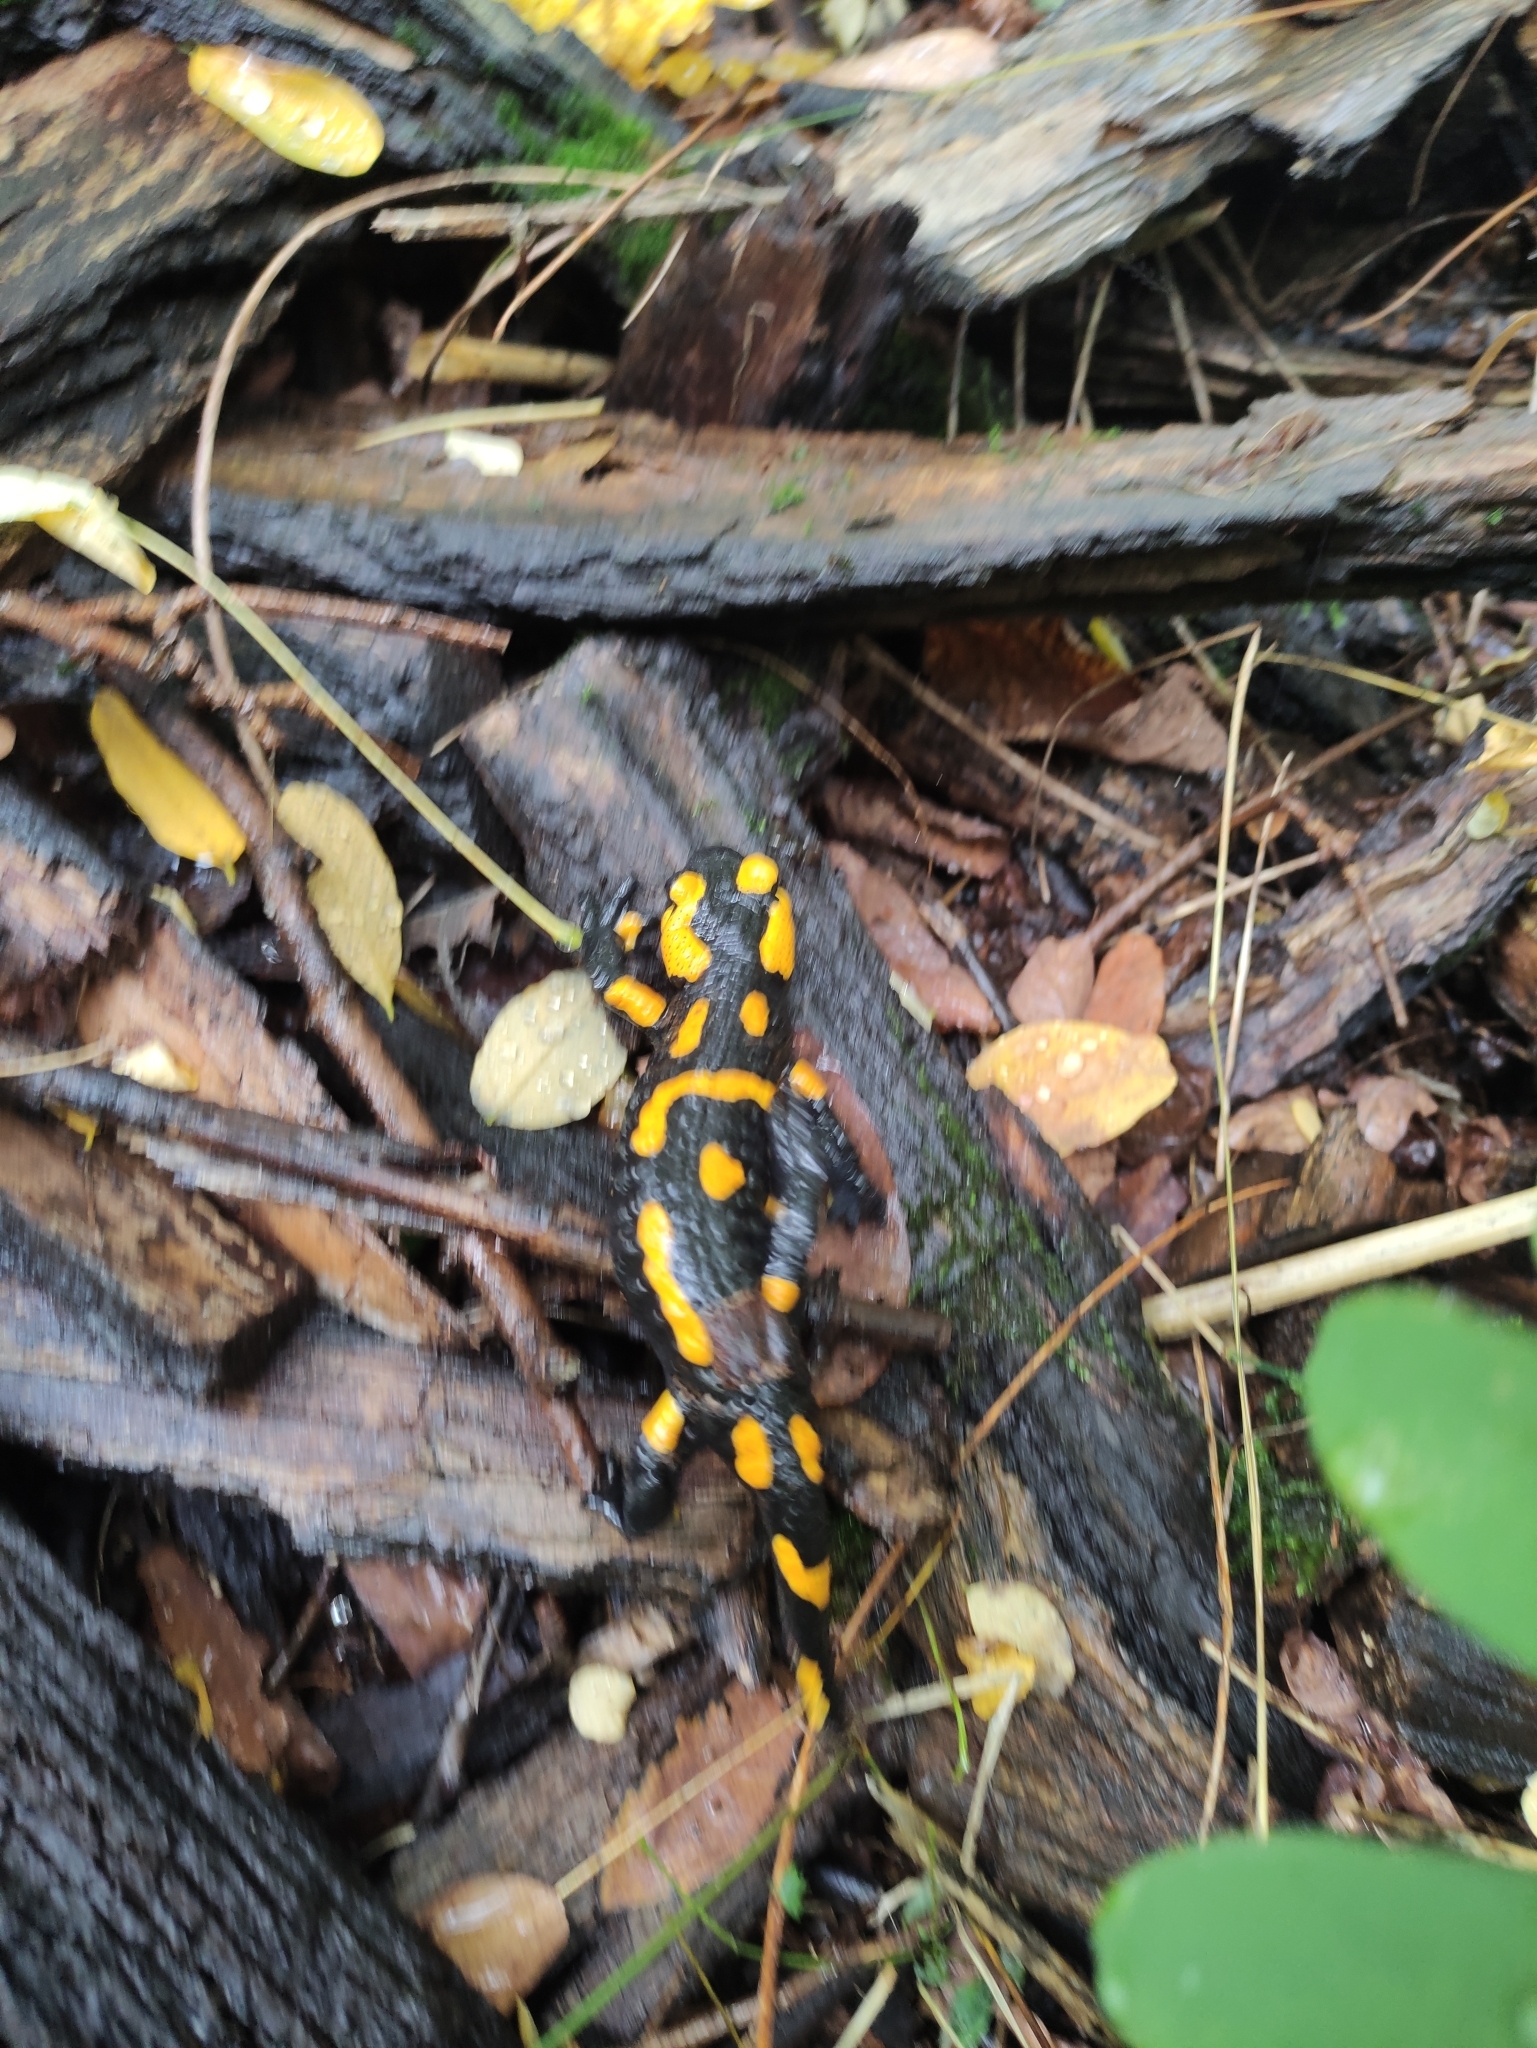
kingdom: Animalia
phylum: Chordata
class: Amphibia
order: Caudata
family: Salamandridae
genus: Salamandra
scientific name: Salamandra salamandra
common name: Fire salamander
